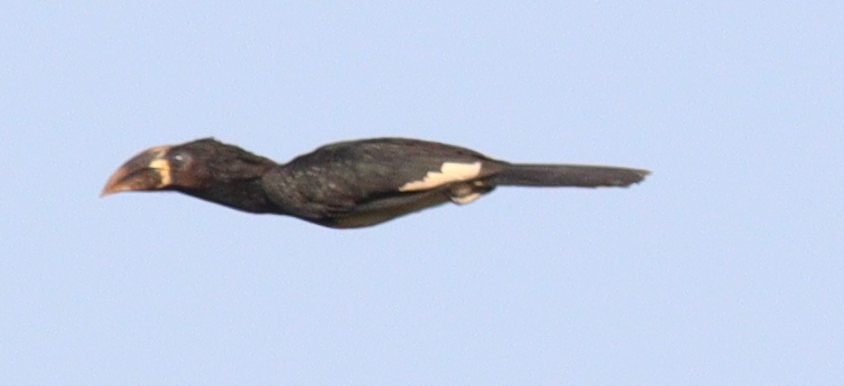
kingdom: Animalia
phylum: Chordata
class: Aves
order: Bucerotiformes
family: Bucerotidae
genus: Bycanistes
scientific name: Bycanistes fistulator
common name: Piping hornbill
